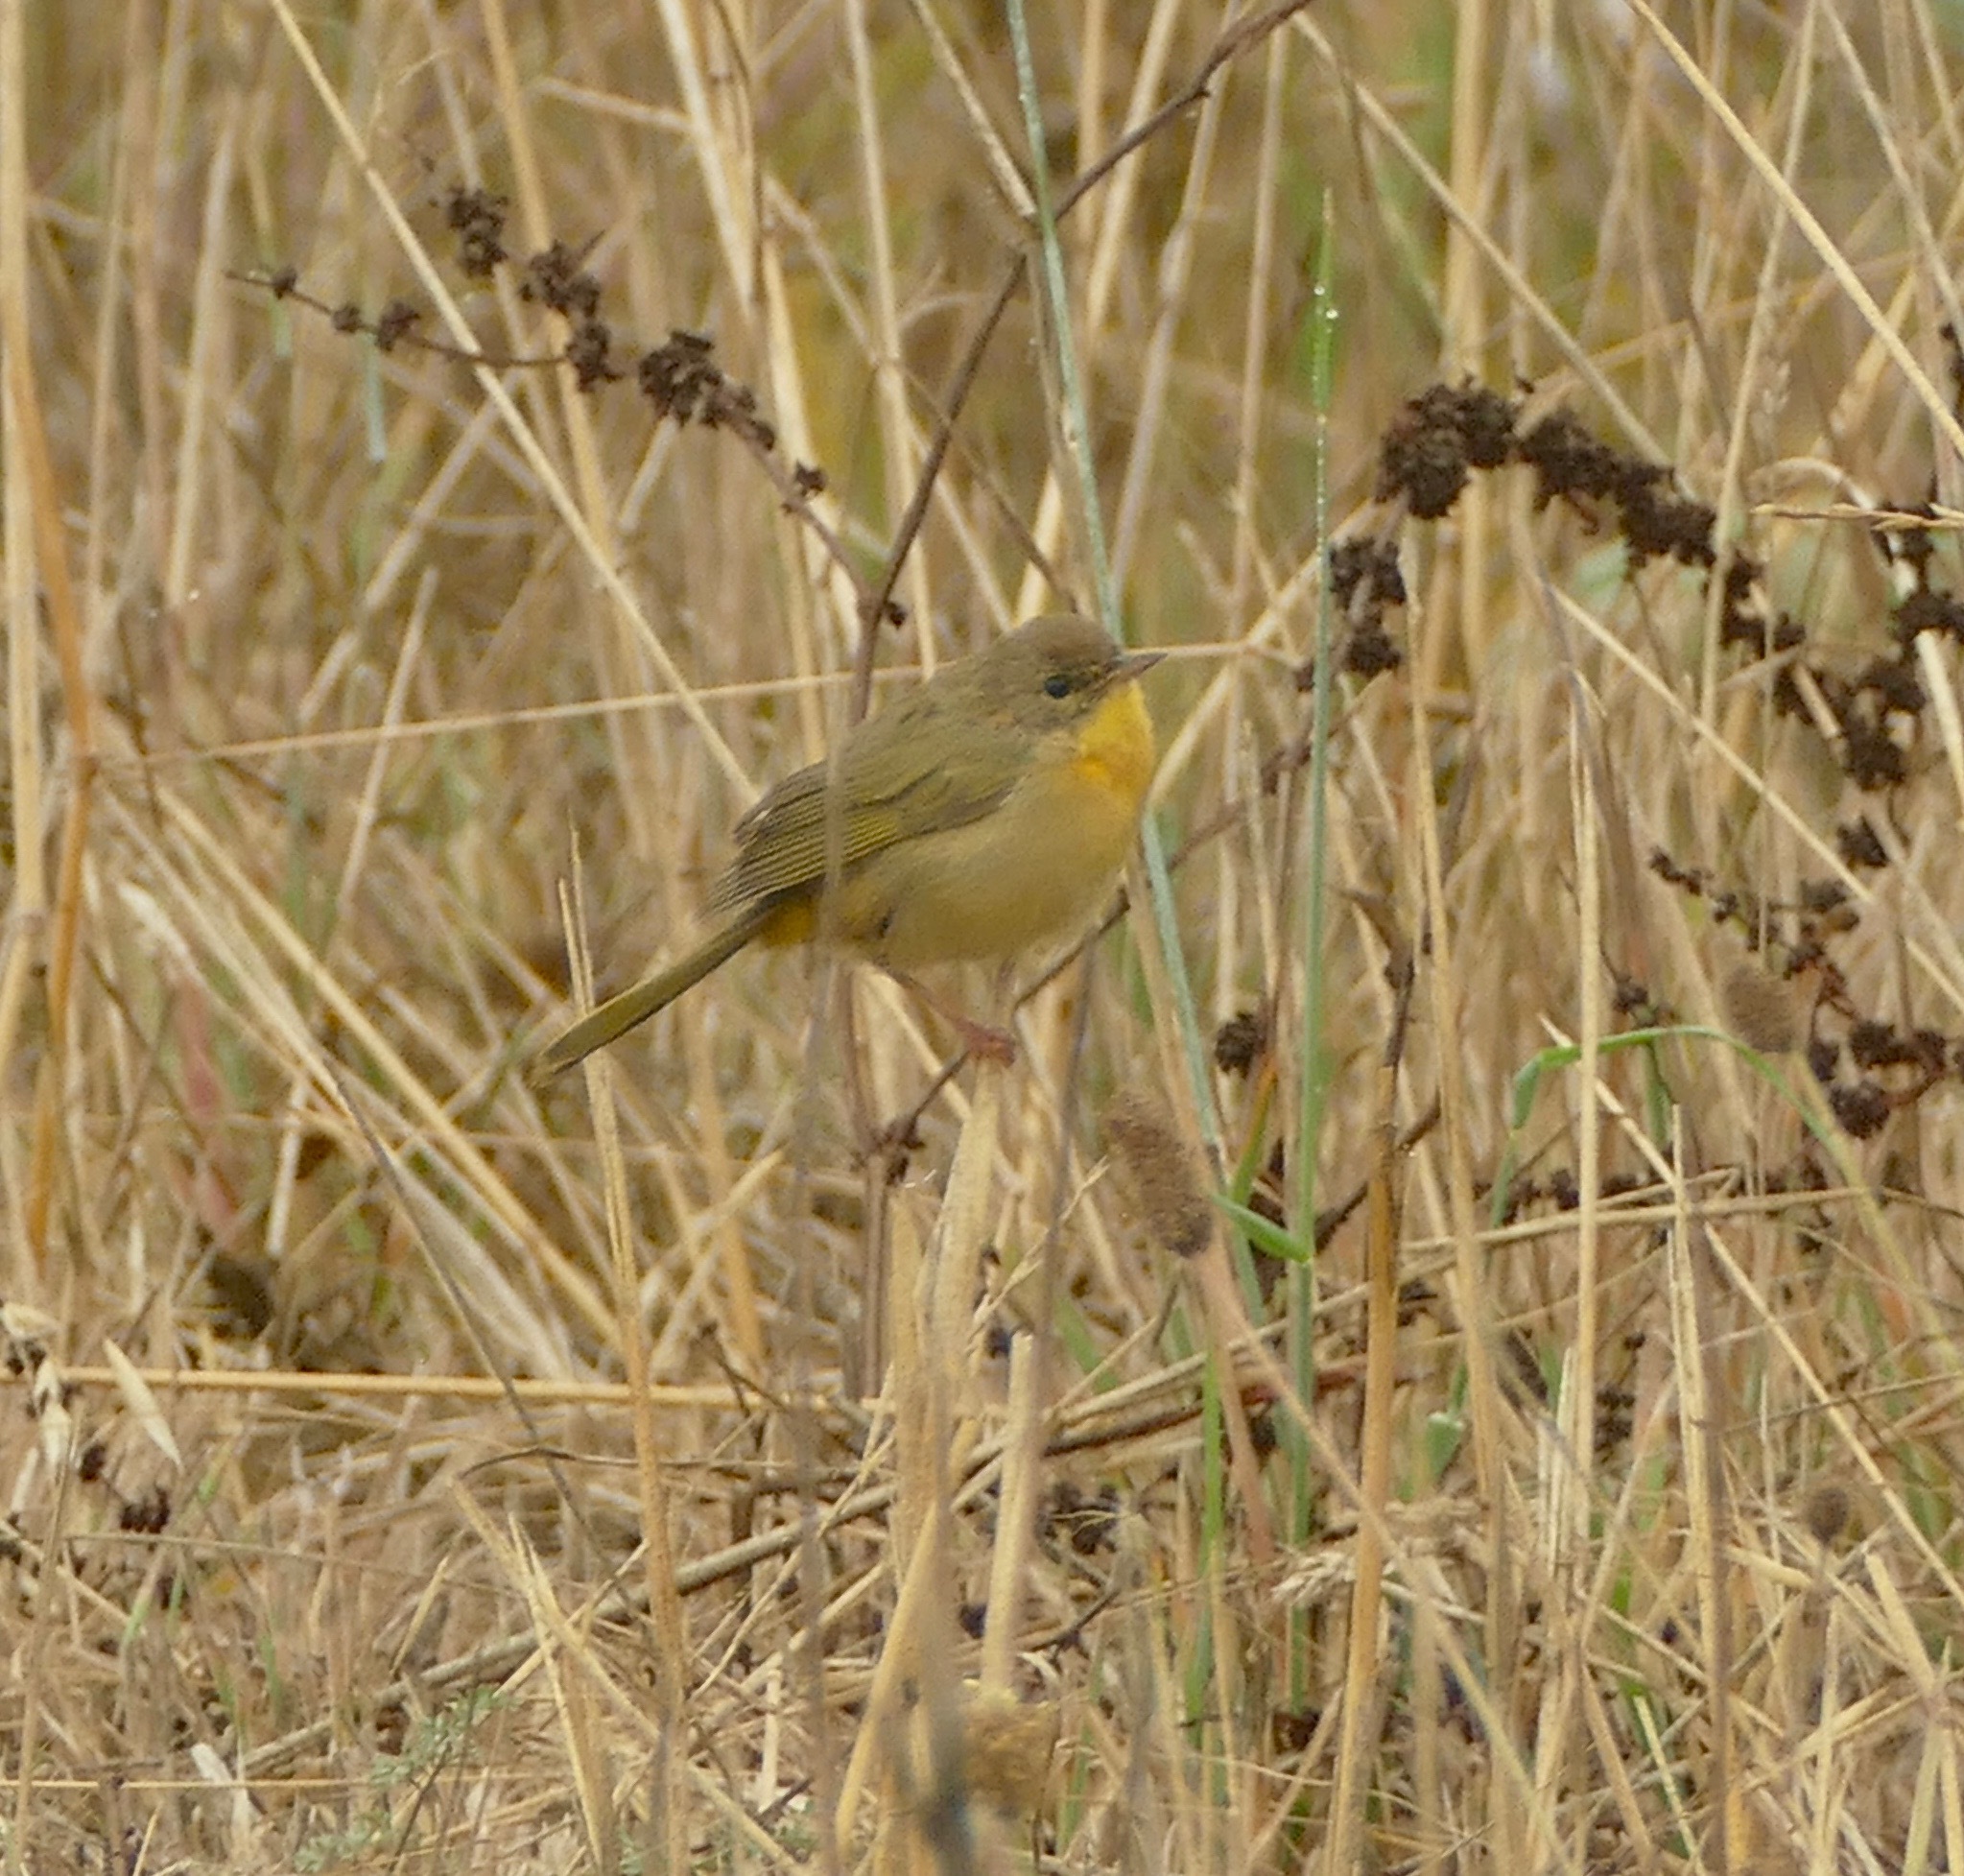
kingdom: Animalia
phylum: Chordata
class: Aves
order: Passeriformes
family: Parulidae
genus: Geothlypis
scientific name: Geothlypis trichas
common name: Common yellowthroat
